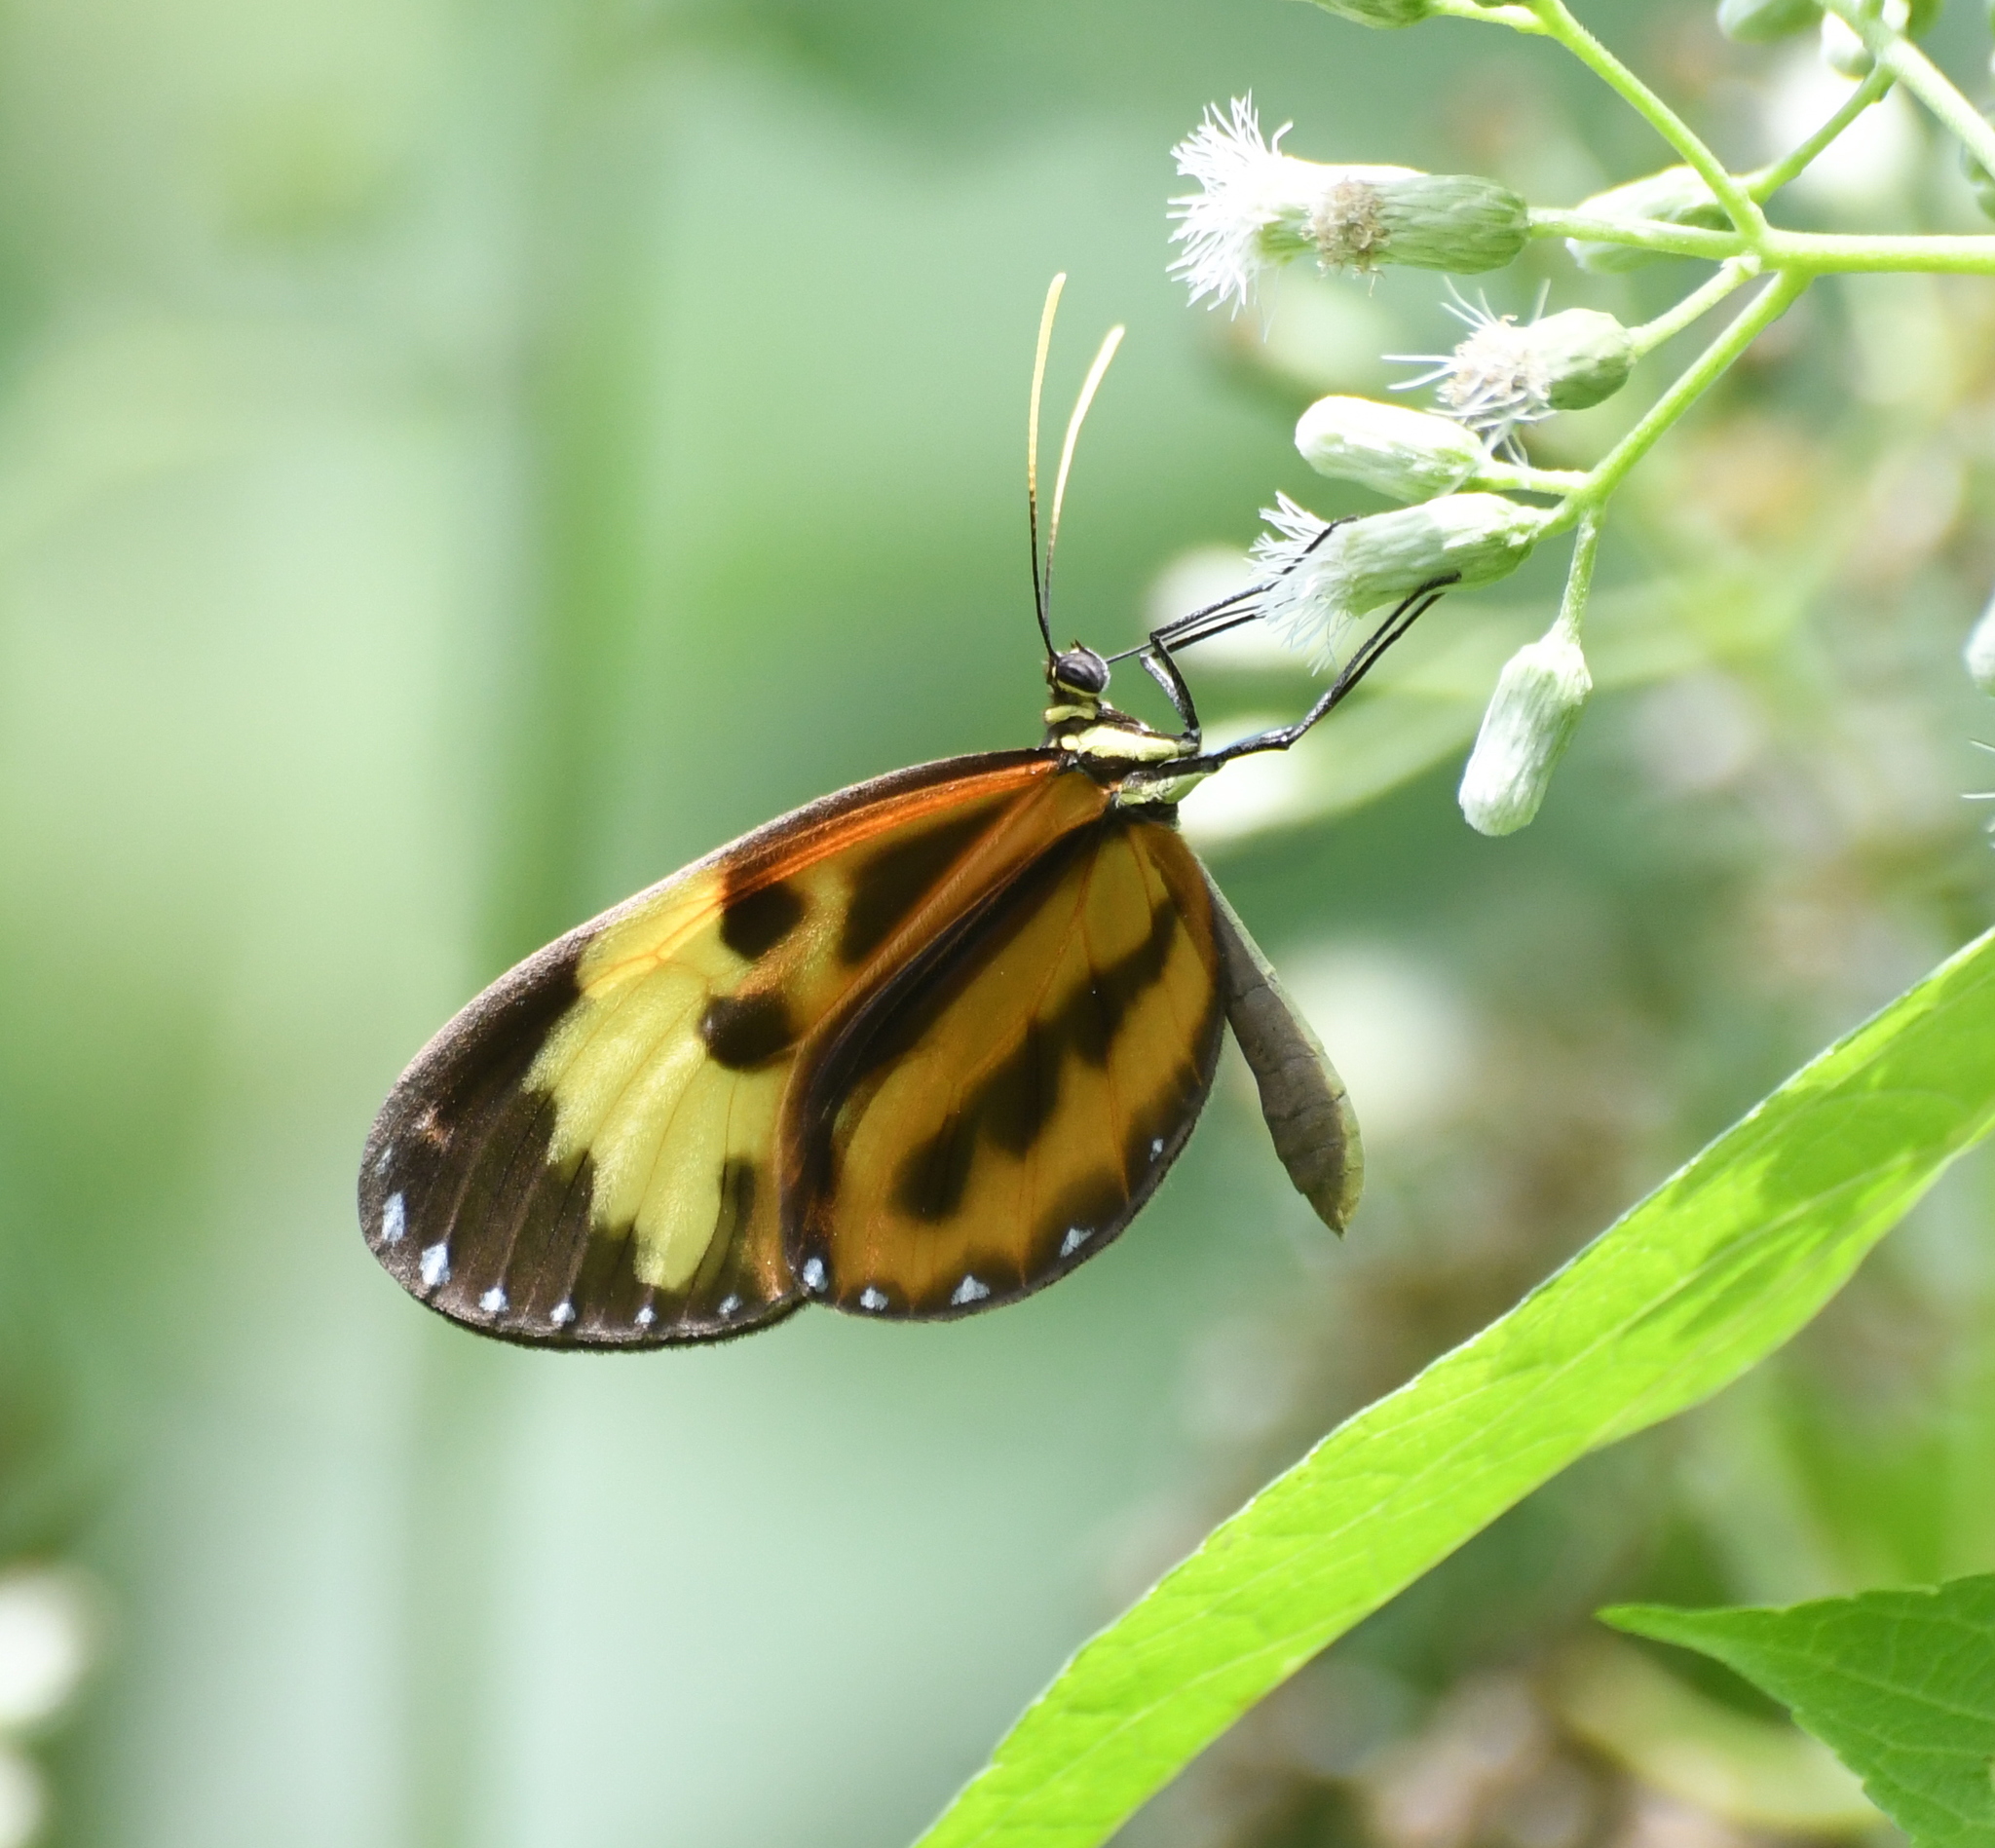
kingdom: Animalia
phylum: Arthropoda
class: Insecta
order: Lepidoptera
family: Nymphalidae
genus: Ceratinia
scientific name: Ceratinia tutia
